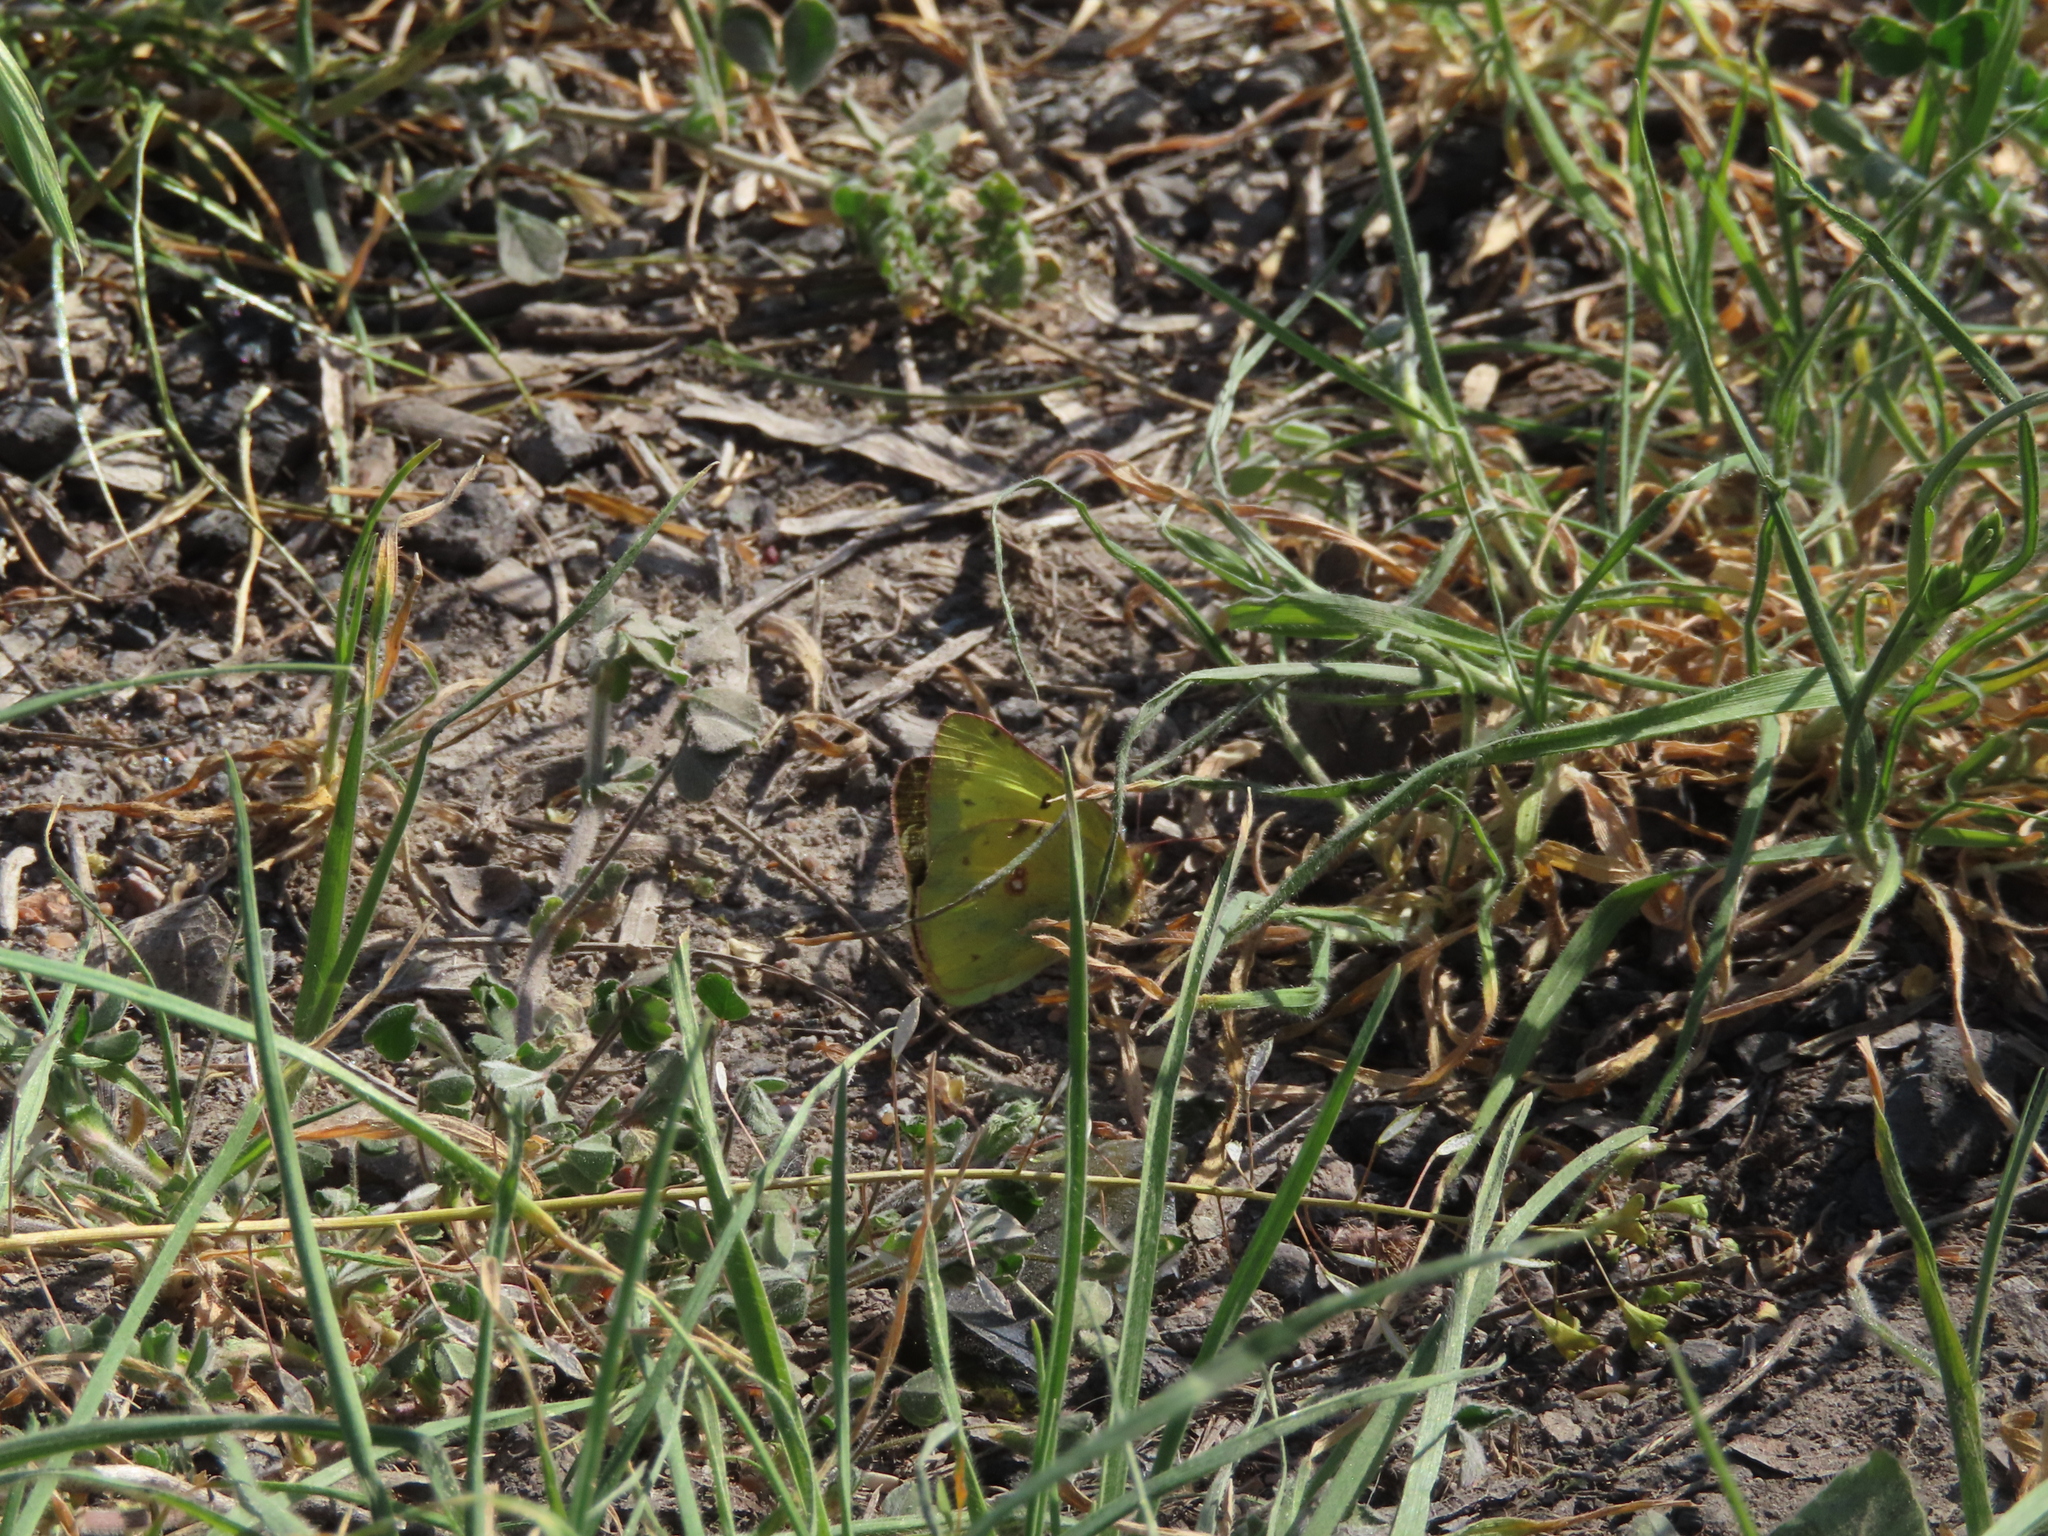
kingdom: Animalia
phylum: Arthropoda
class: Insecta
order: Lepidoptera
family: Pieridae
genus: Colias
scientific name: Colias eurytheme
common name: Alfalfa butterfly
